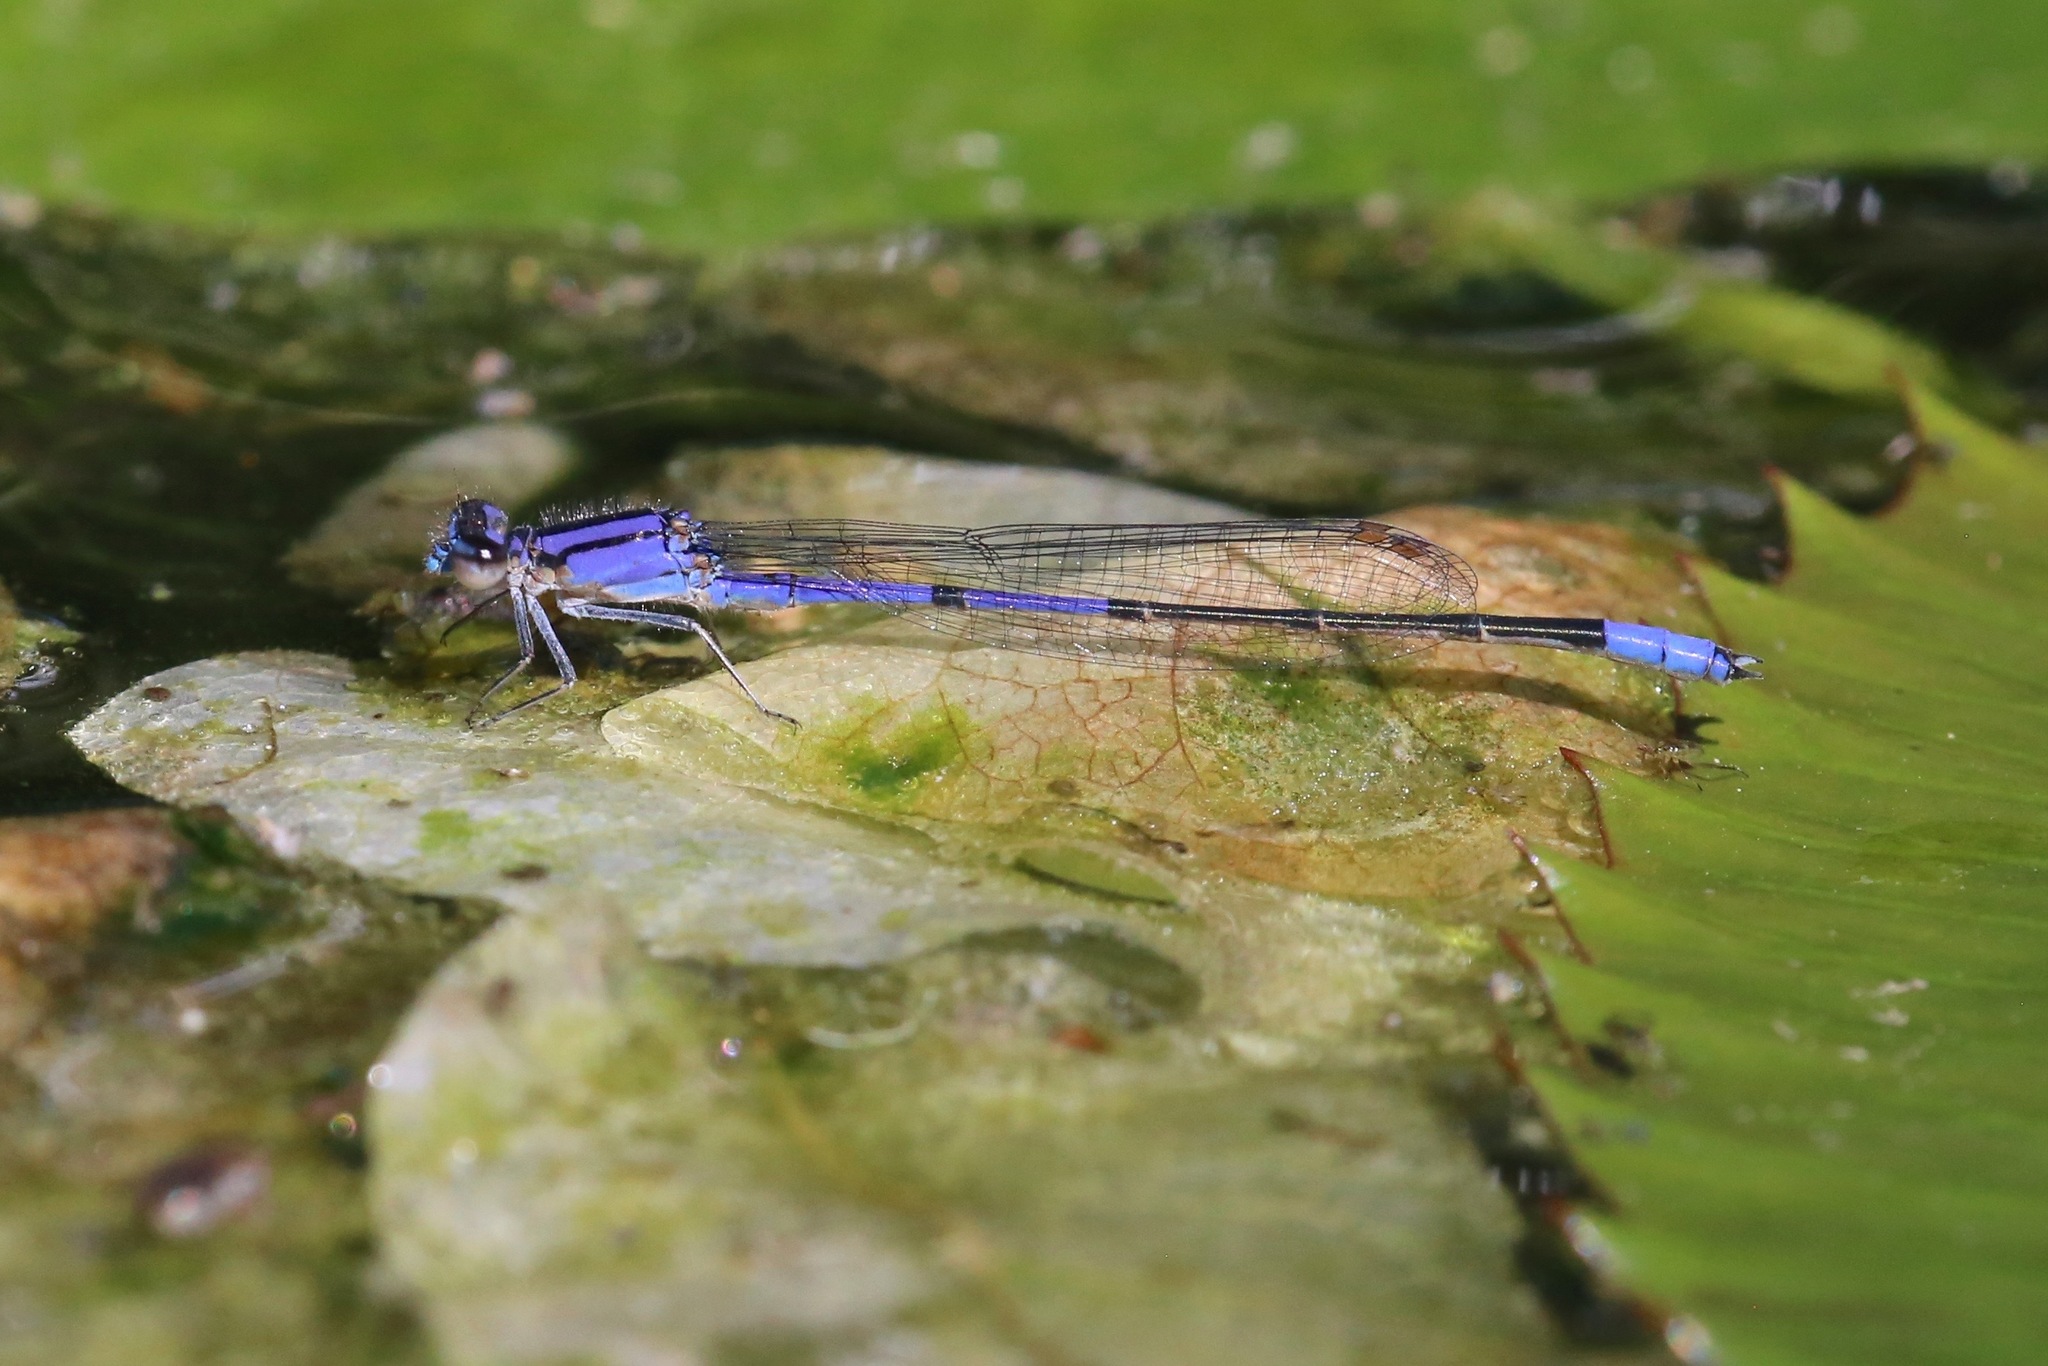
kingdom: Animalia
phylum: Arthropoda
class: Insecta
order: Odonata
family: Coenagrionidae
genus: Enallagma
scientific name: Enallagma semicirculare
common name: Claw-tipped bluet
